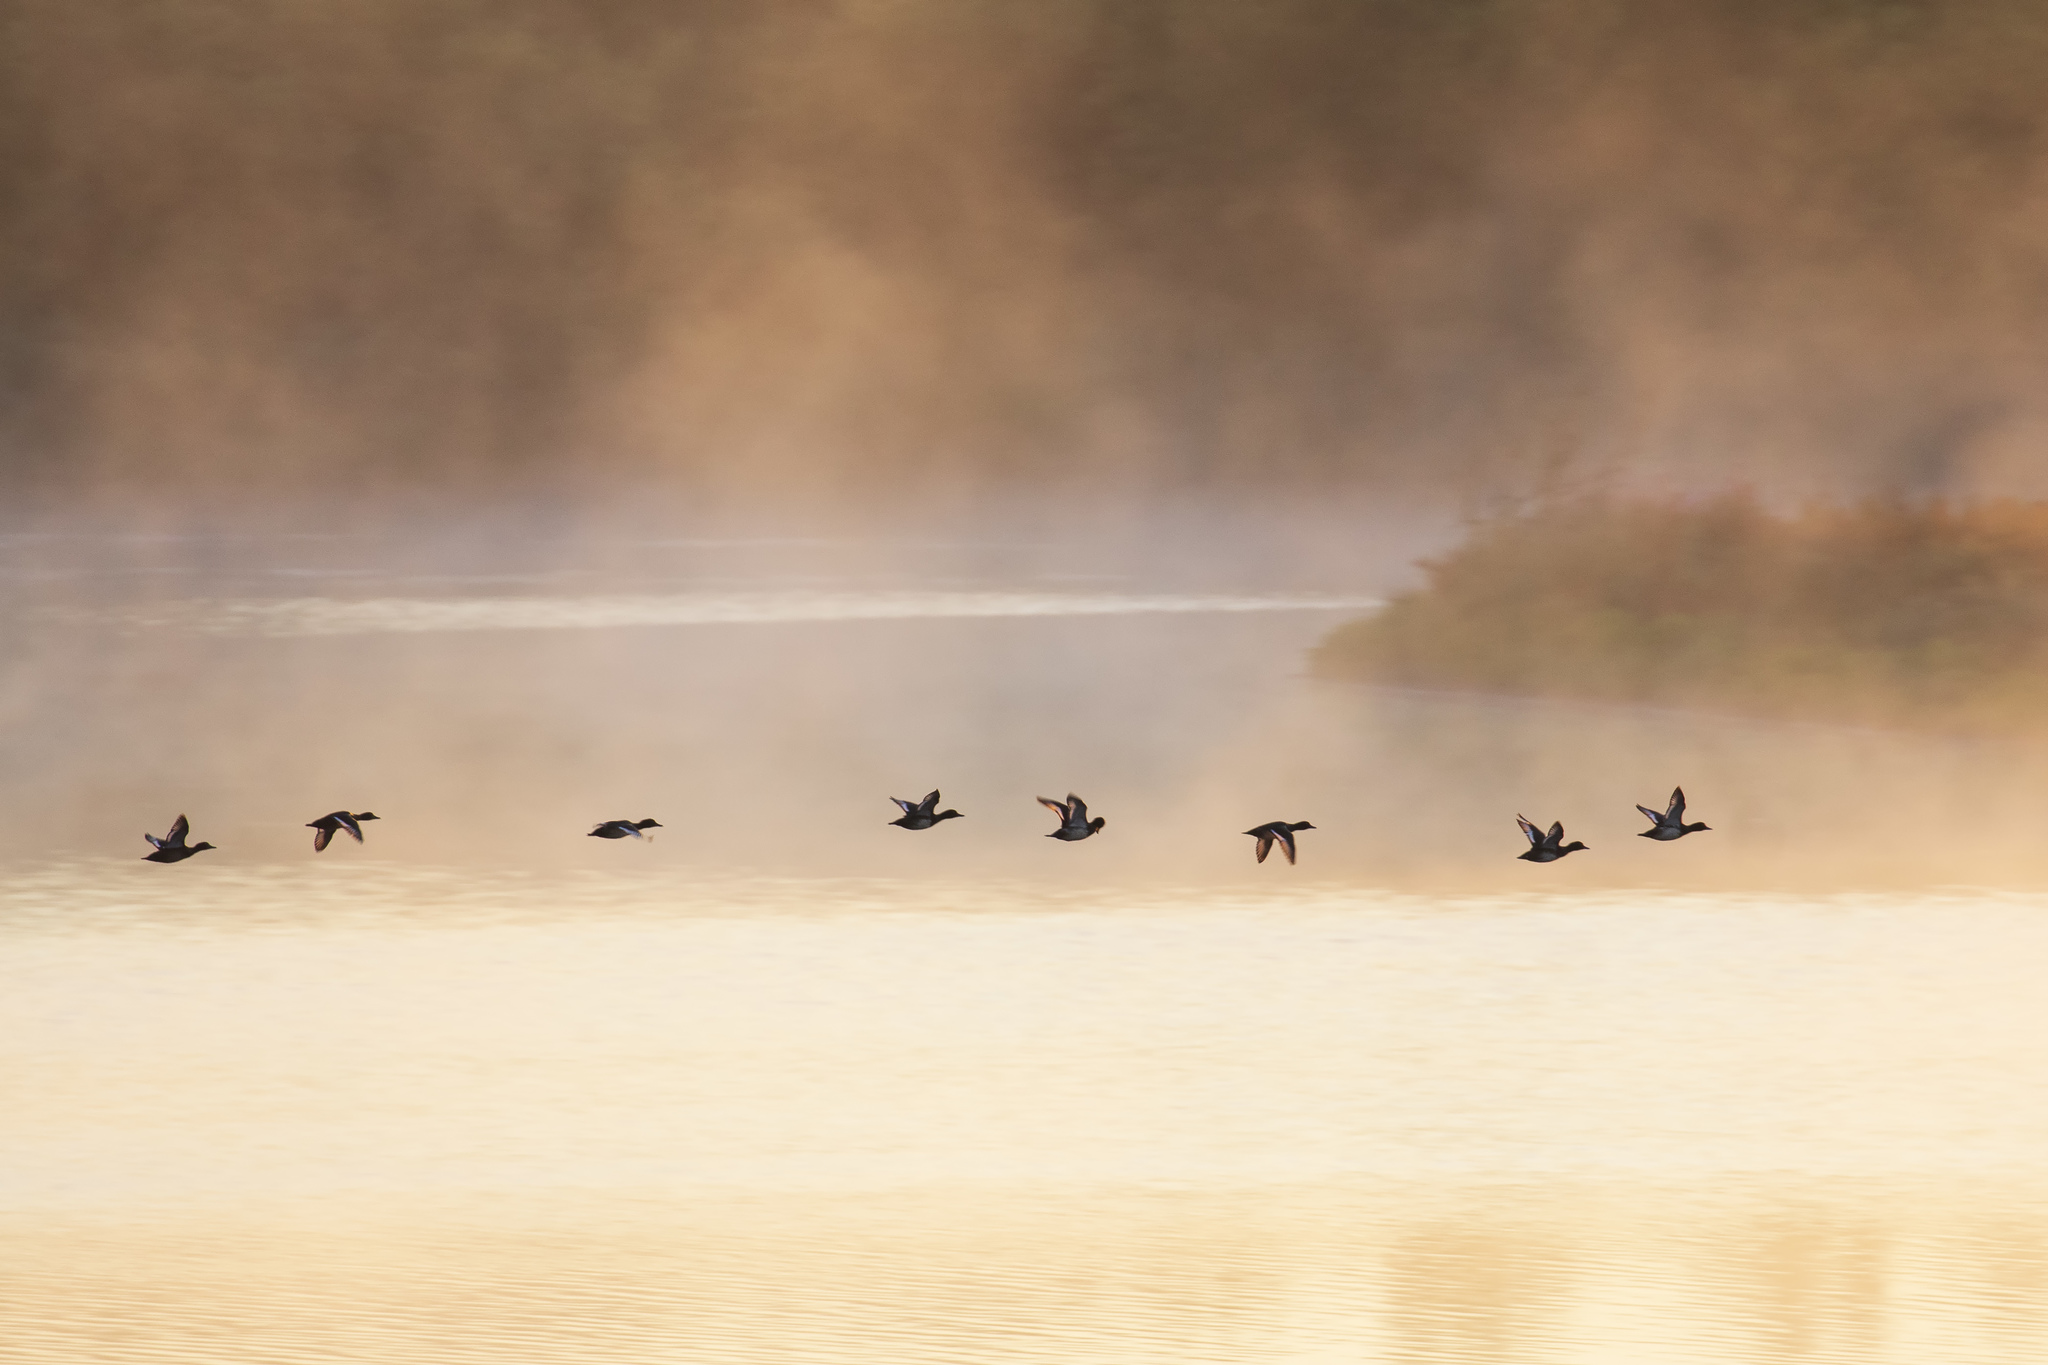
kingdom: Animalia
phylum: Chordata
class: Aves
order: Anseriformes
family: Anatidae
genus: Aythya
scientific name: Aythya fuligula
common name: Tufted duck
